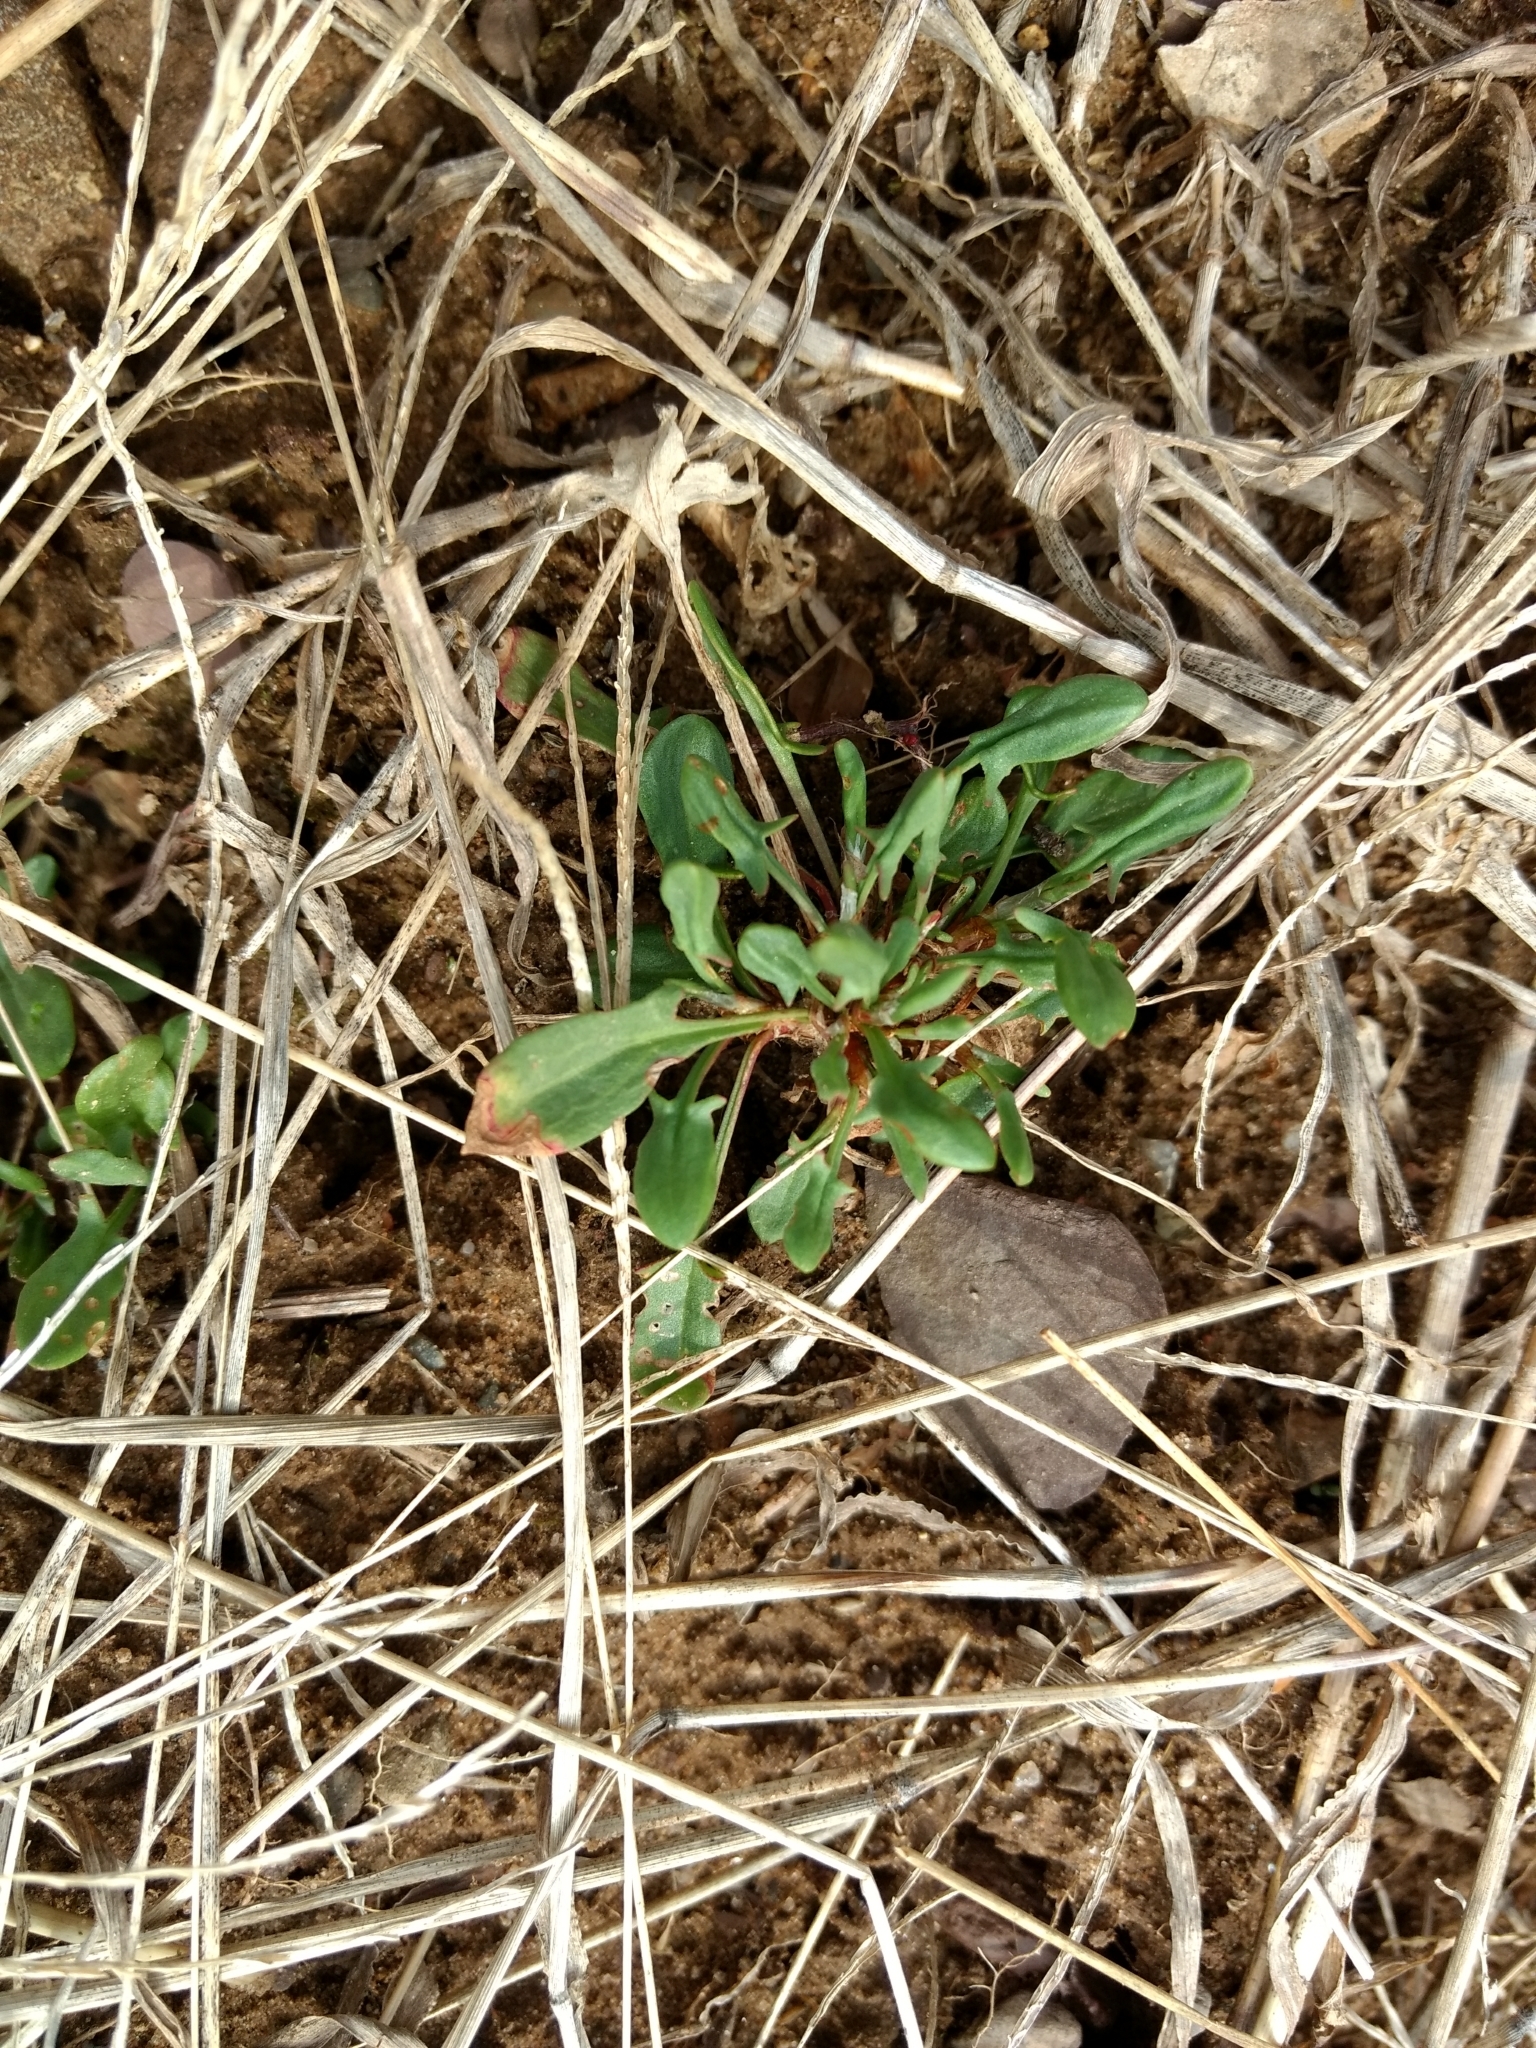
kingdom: Plantae
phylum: Tracheophyta
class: Magnoliopsida
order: Caryophyllales
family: Polygonaceae
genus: Rumex
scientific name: Rumex acetosella
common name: Common sheep sorrel
